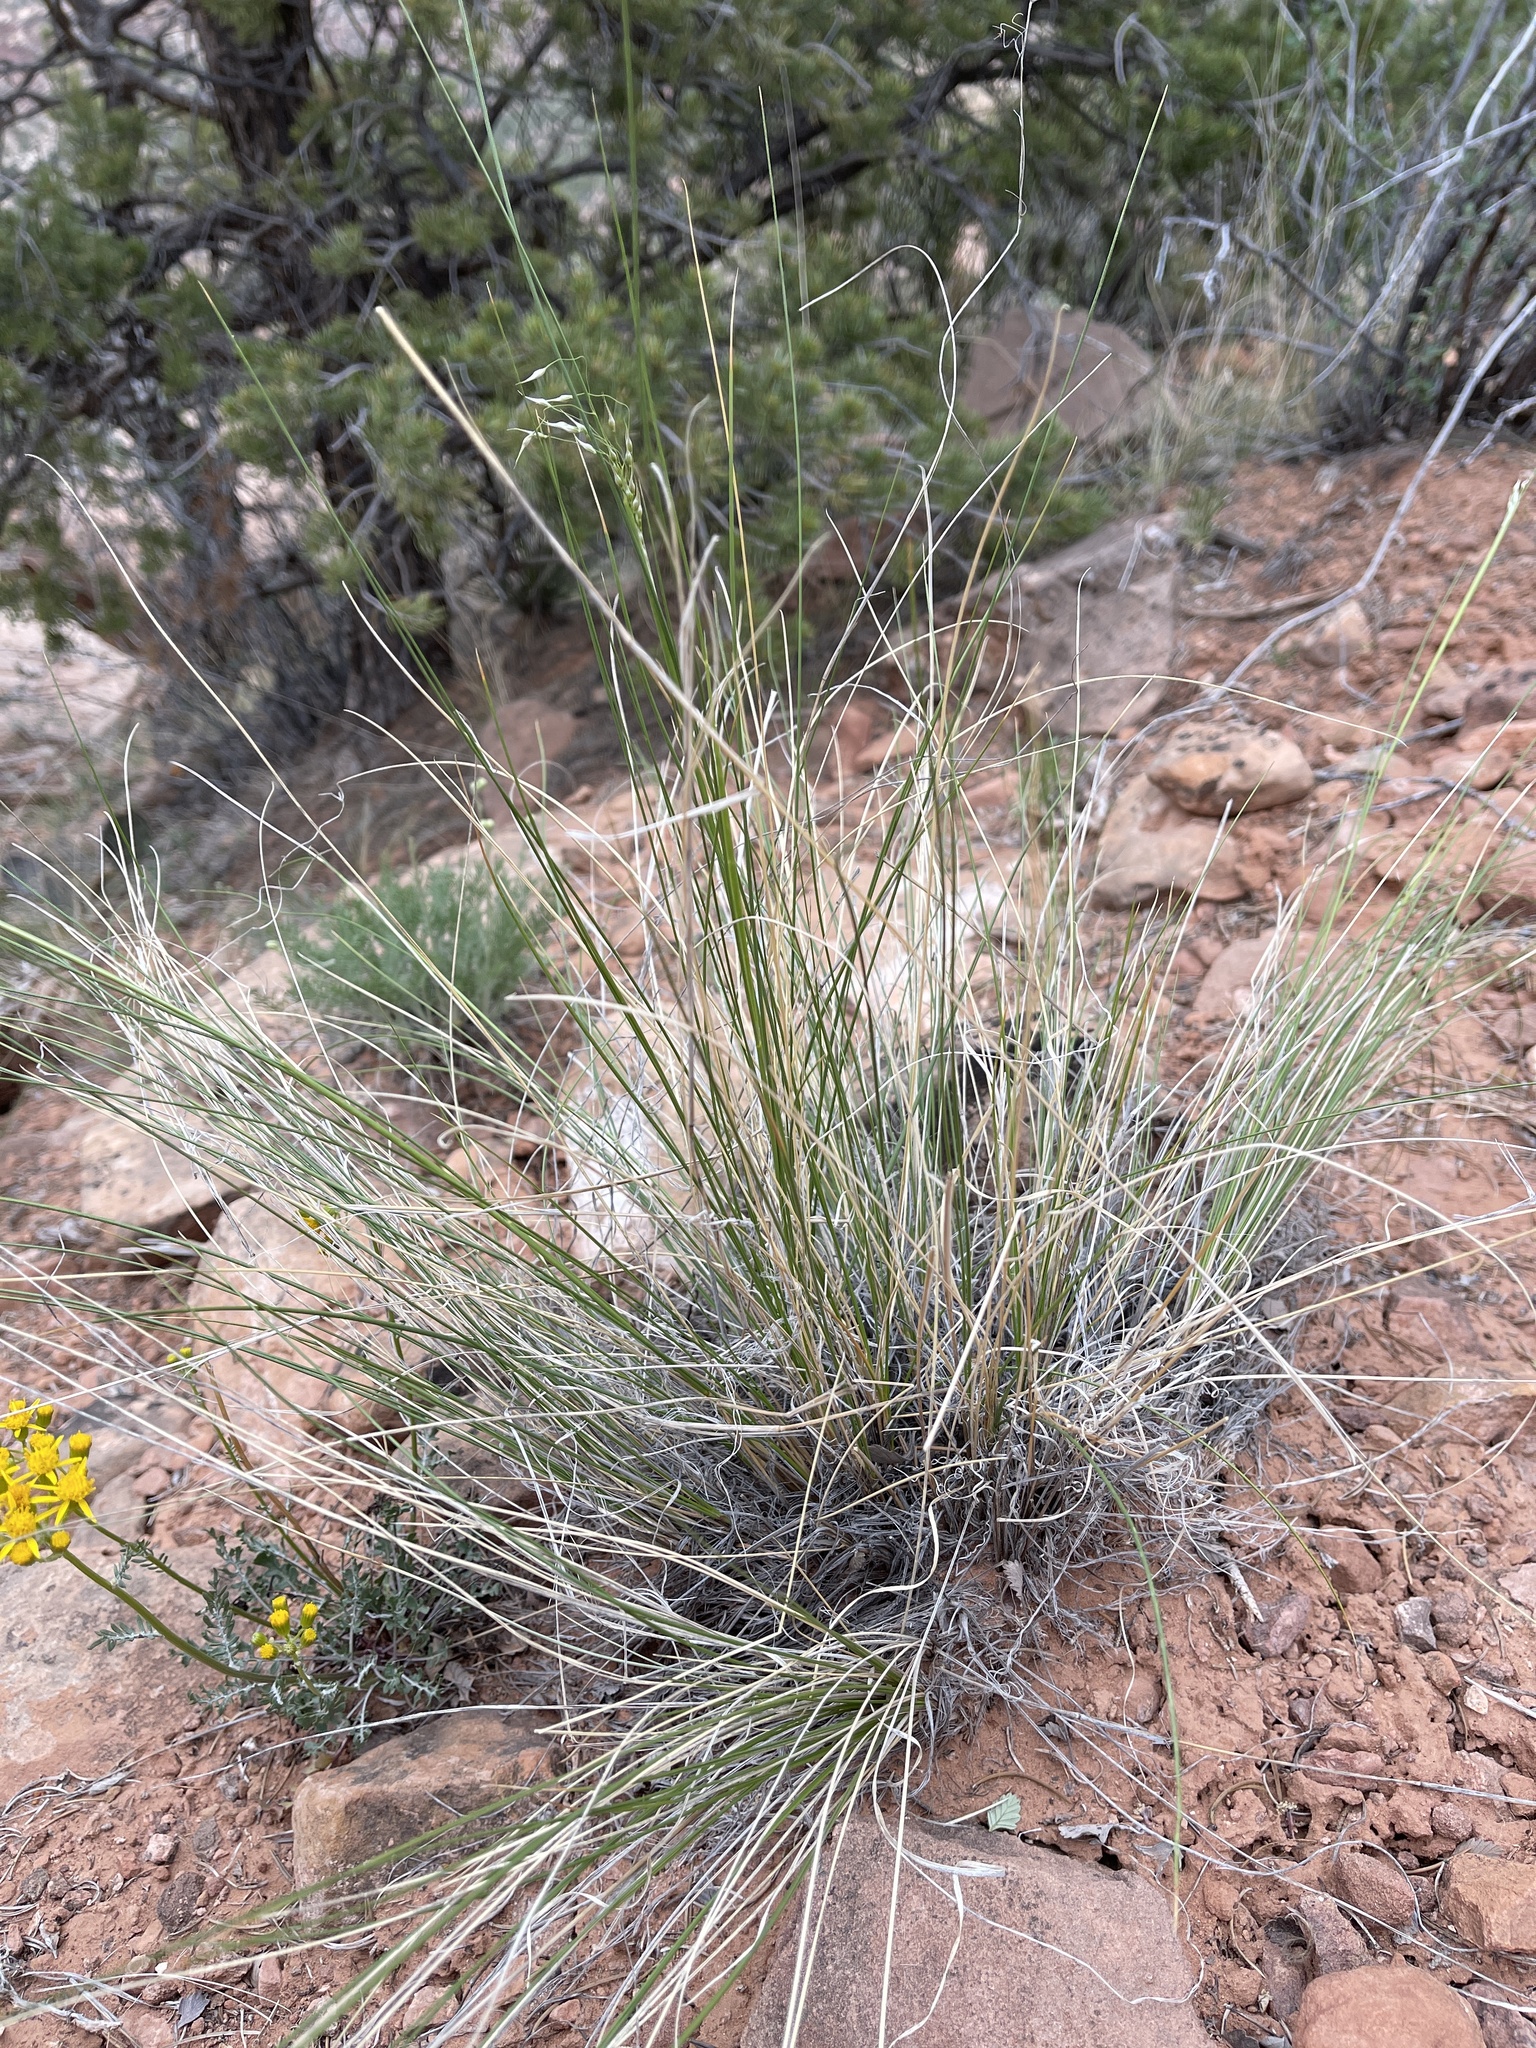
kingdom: Plantae
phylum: Tracheophyta
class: Liliopsida
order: Poales
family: Poaceae
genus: Eriocoma
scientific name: Eriocoma hymenoides
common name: Indian mountain ricegrass
